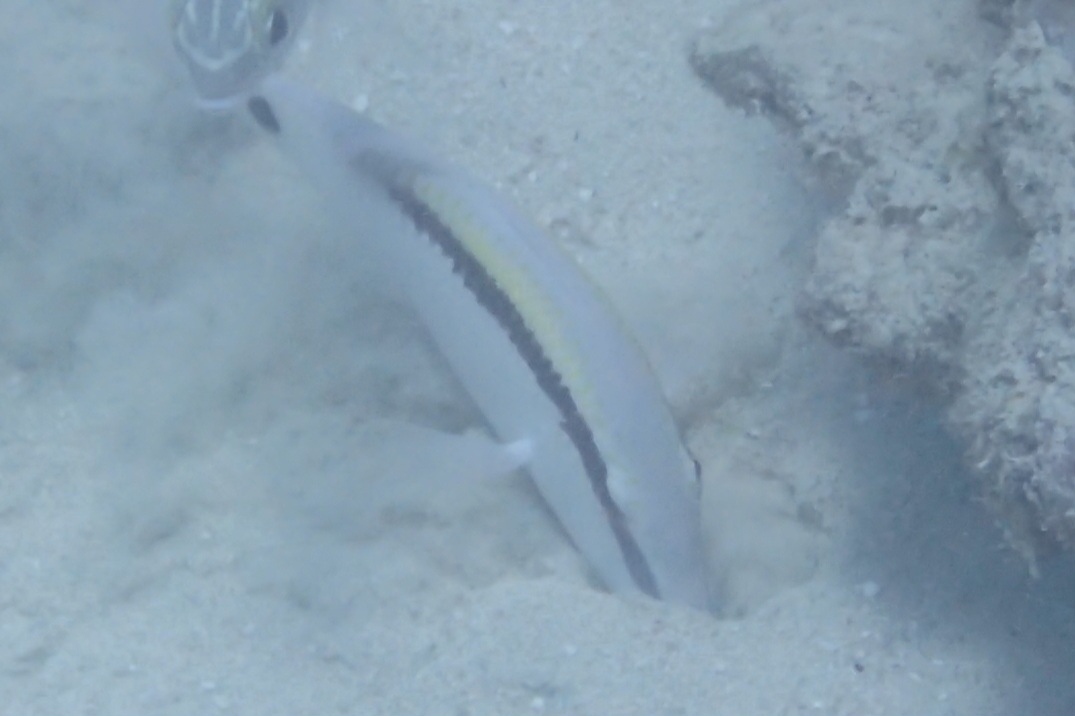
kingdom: Animalia
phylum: Chordata
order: Perciformes
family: Mullidae
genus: Parupeneus
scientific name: Parupeneus barberinus
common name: Dash-and-dot goatfish
